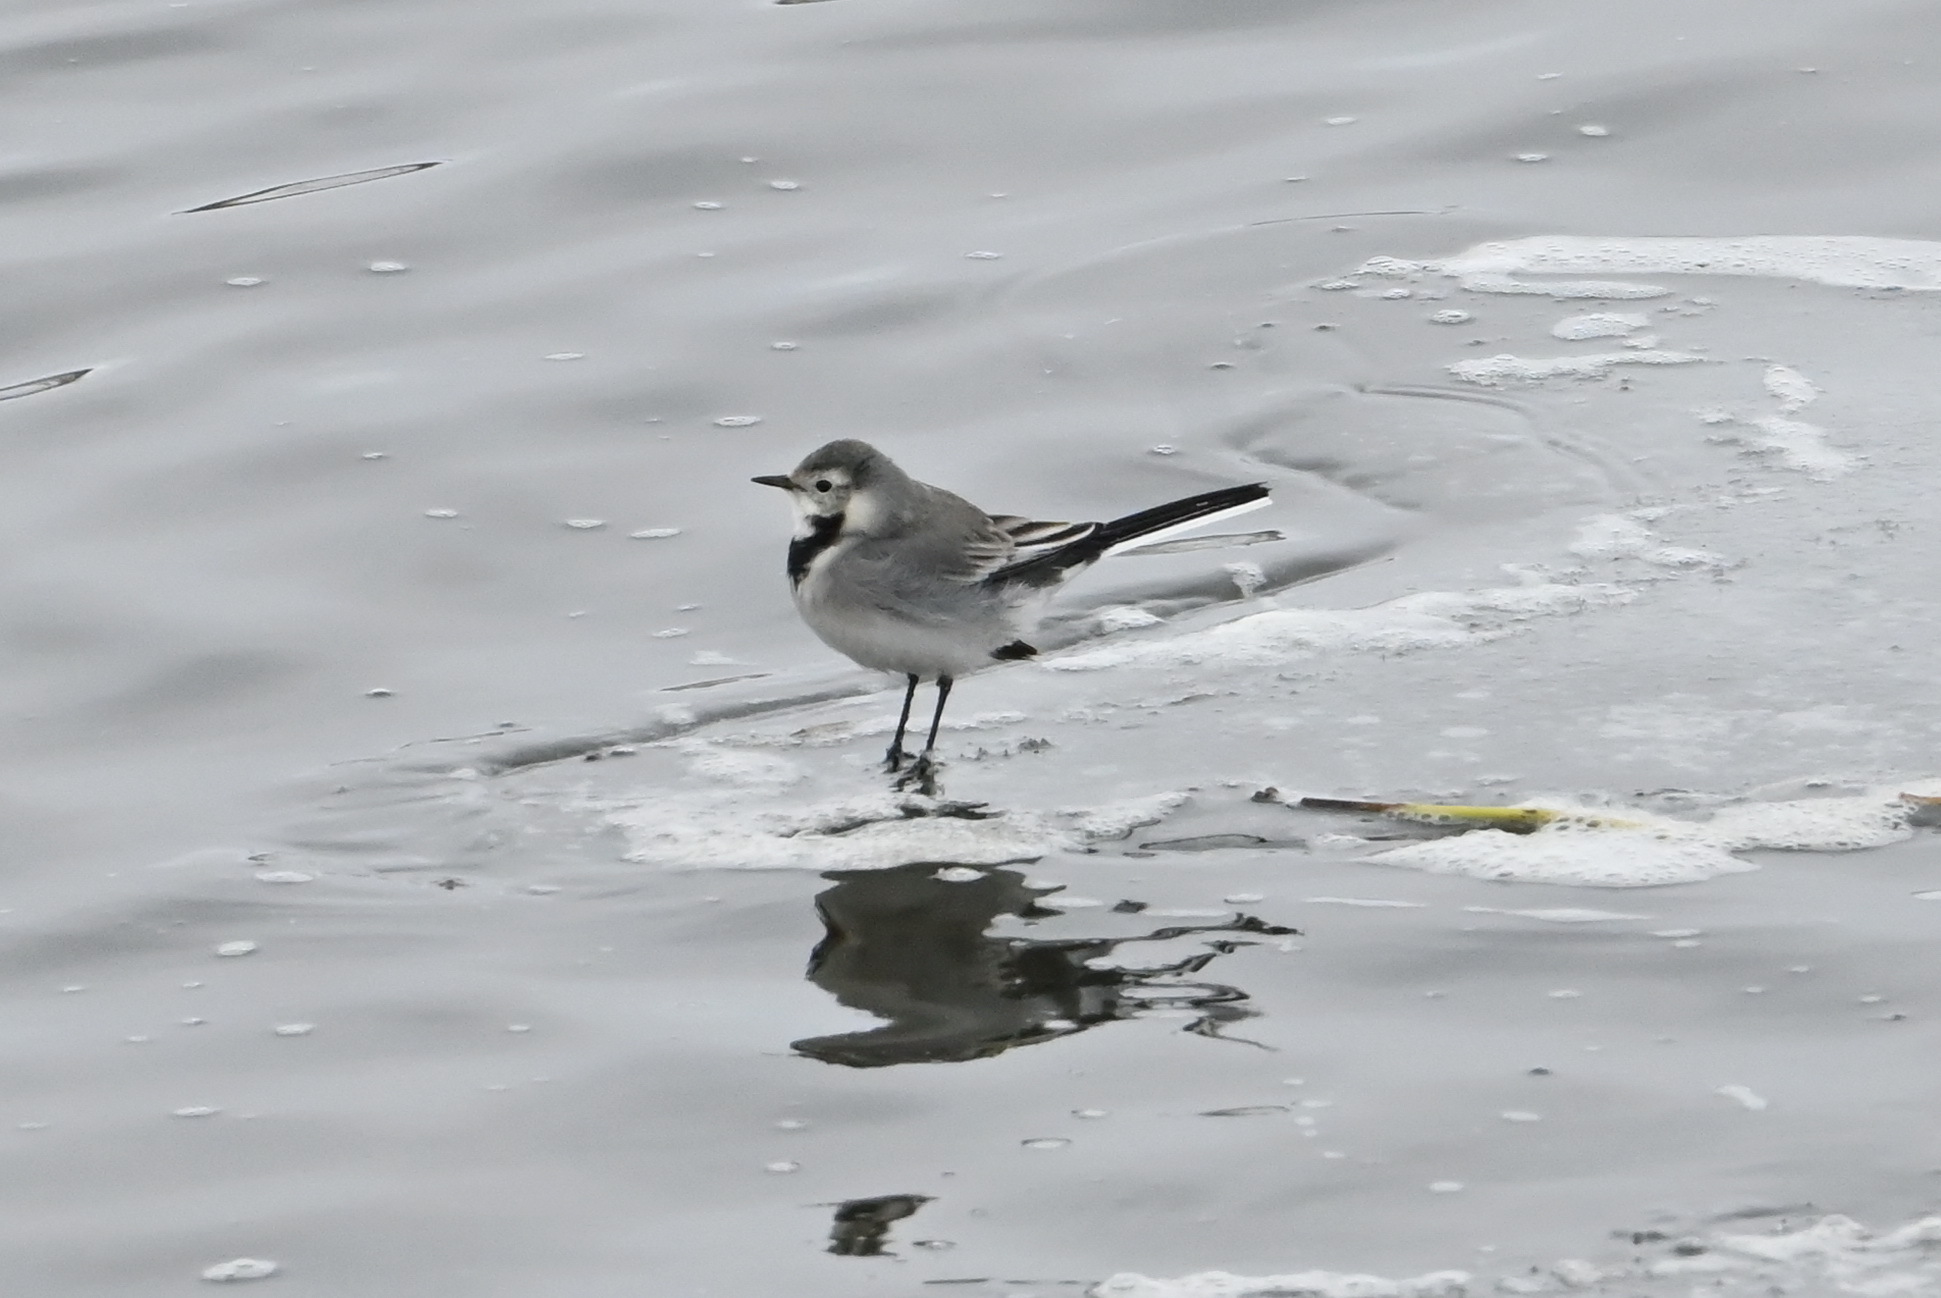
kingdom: Animalia
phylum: Chordata
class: Aves
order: Passeriformes
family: Motacillidae
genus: Motacilla
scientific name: Motacilla alba
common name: White wagtail
